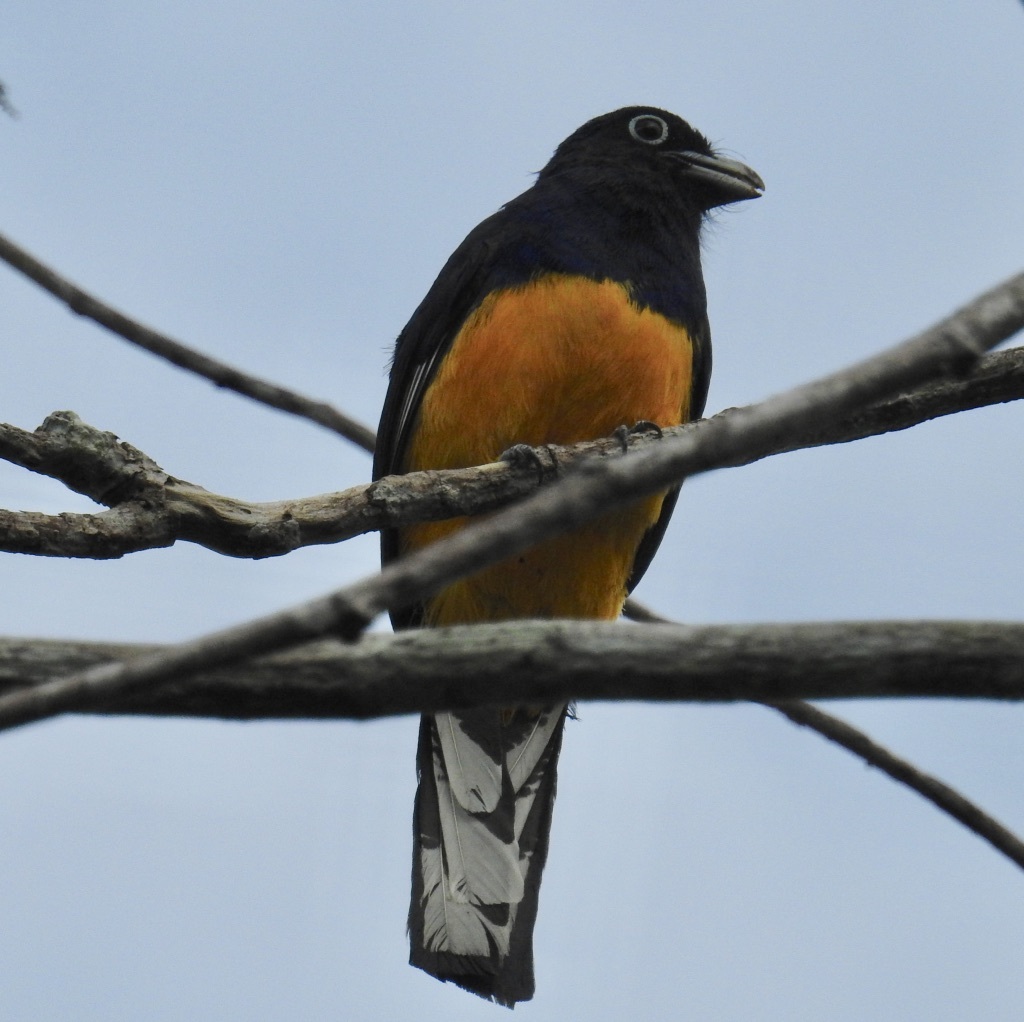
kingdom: Animalia
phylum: Chordata
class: Aves
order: Trogoniformes
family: Trogonidae
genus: Trogon
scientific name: Trogon viridis
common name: Green-backed trogon
